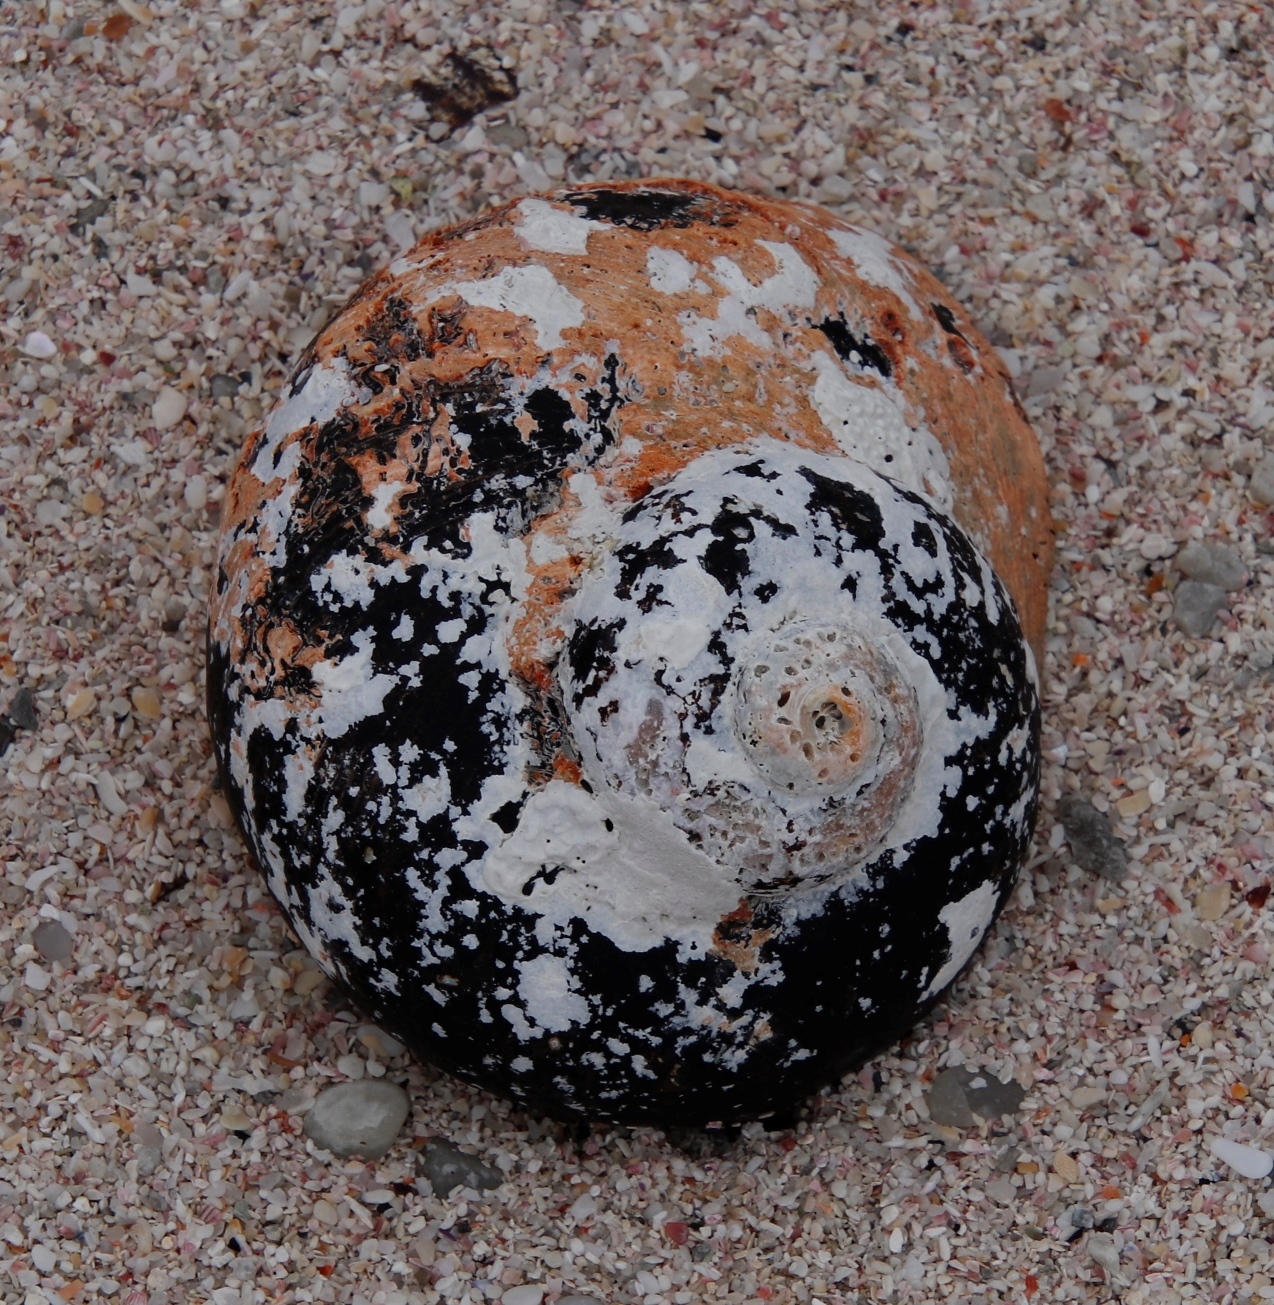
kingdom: Animalia
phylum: Mollusca
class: Gastropoda
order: Trochida
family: Turbinidae
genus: Turbo
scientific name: Turbo sarmaticus
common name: South african turban
